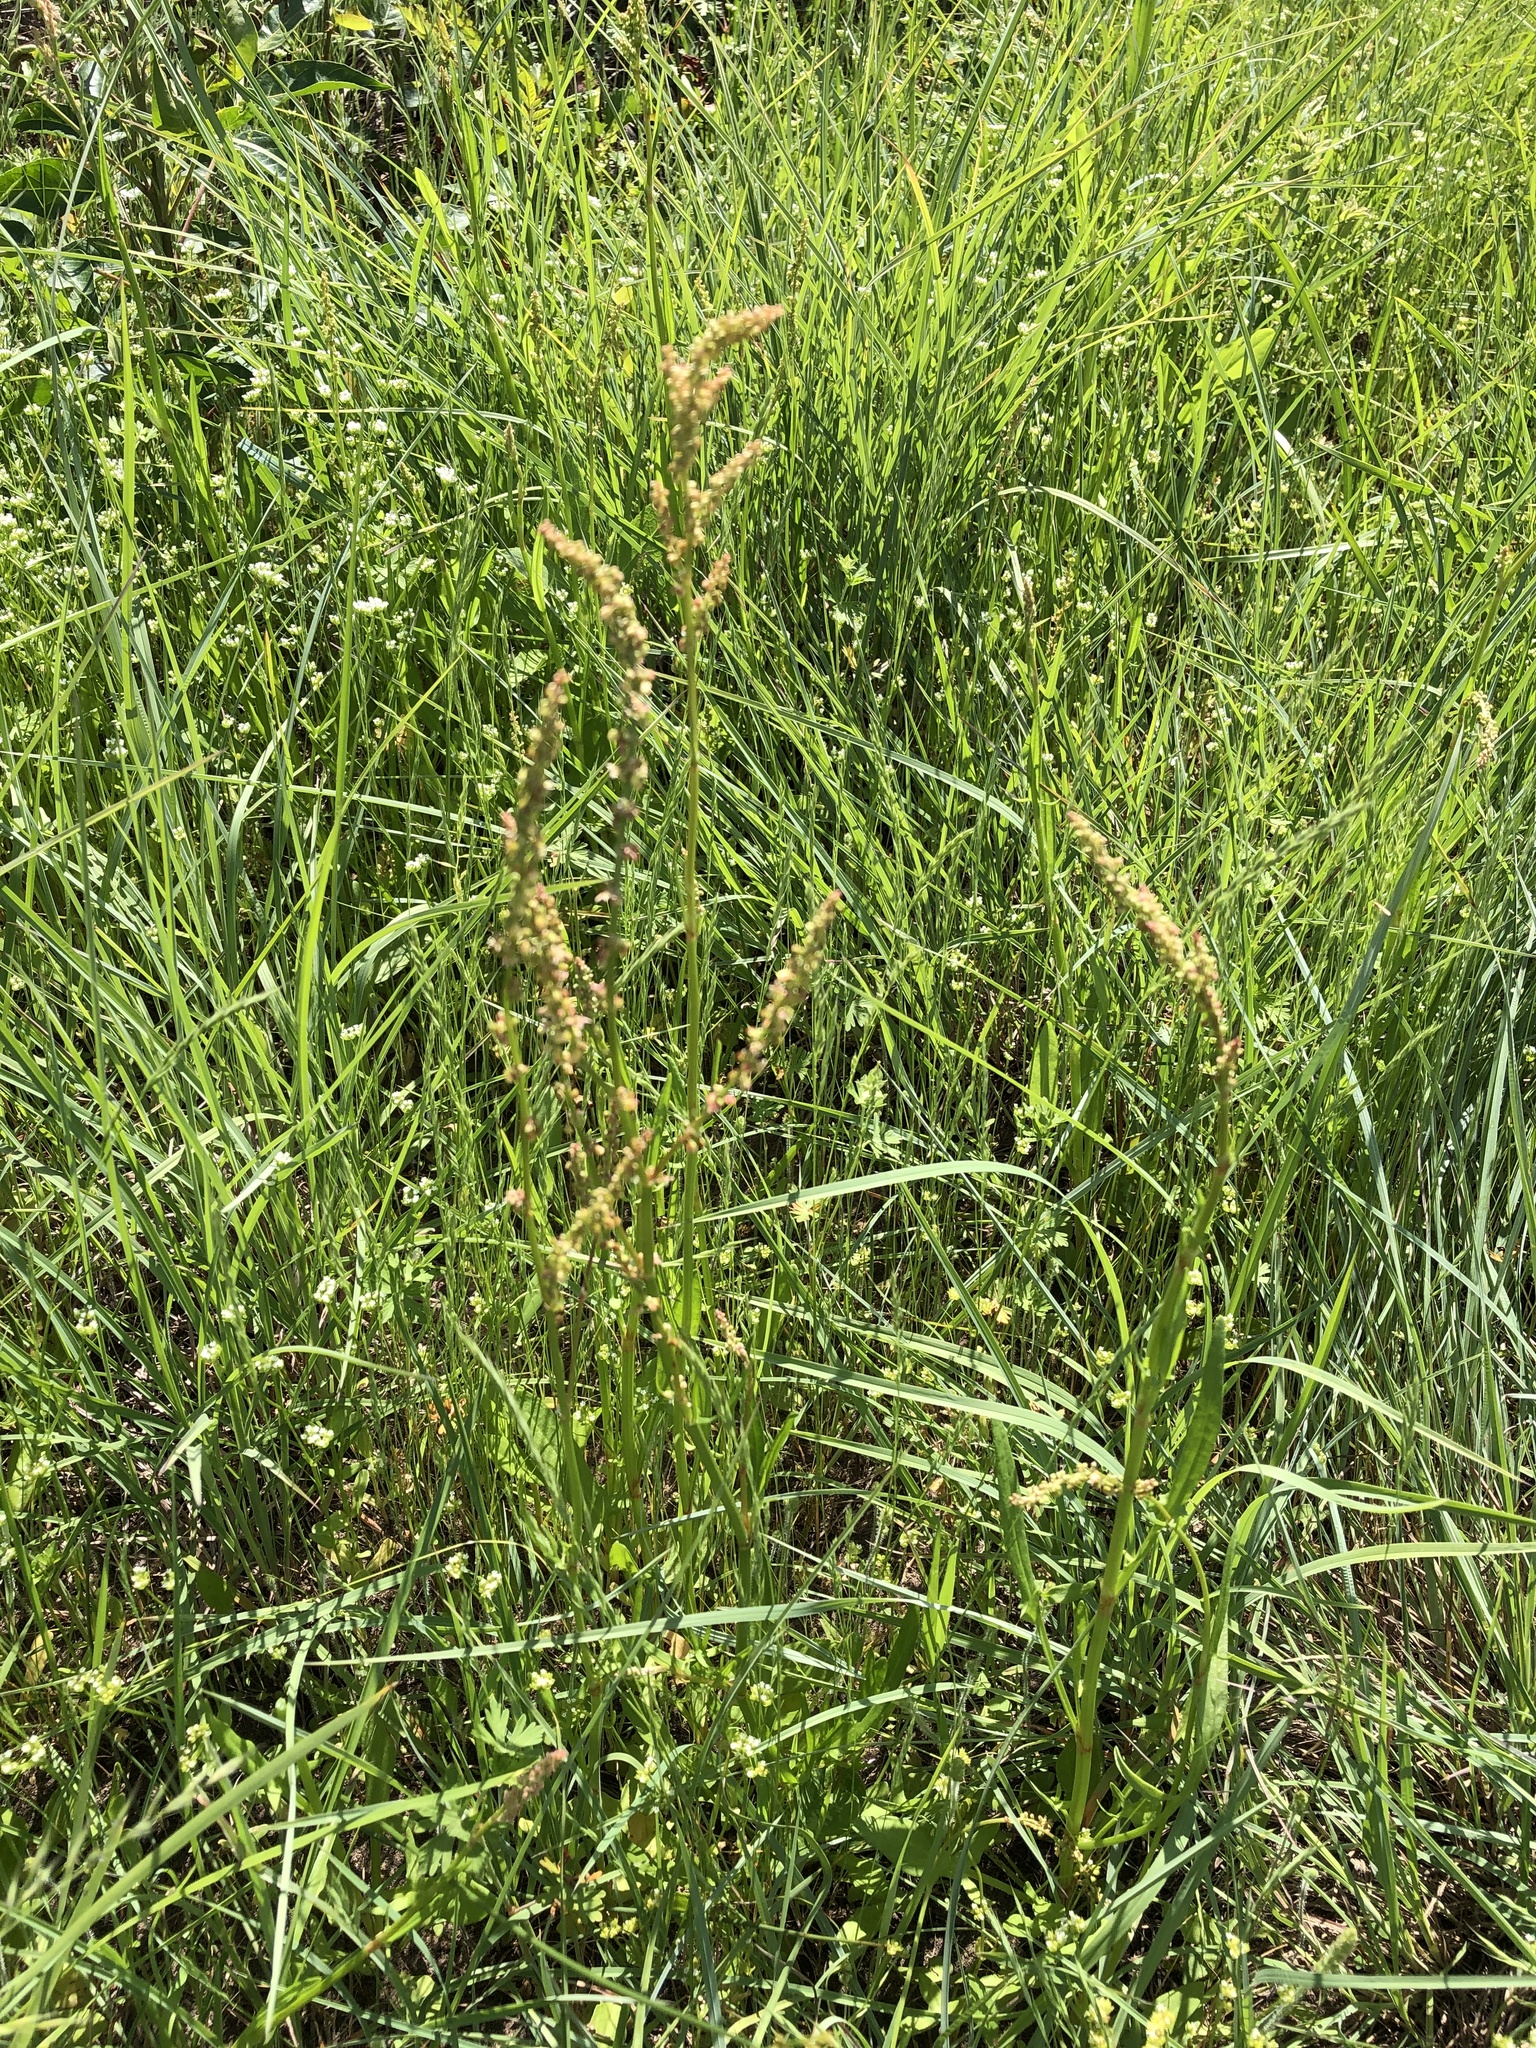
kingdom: Plantae
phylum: Tracheophyta
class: Magnoliopsida
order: Caryophyllales
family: Polygonaceae
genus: Rumex
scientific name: Rumex hastatulus
